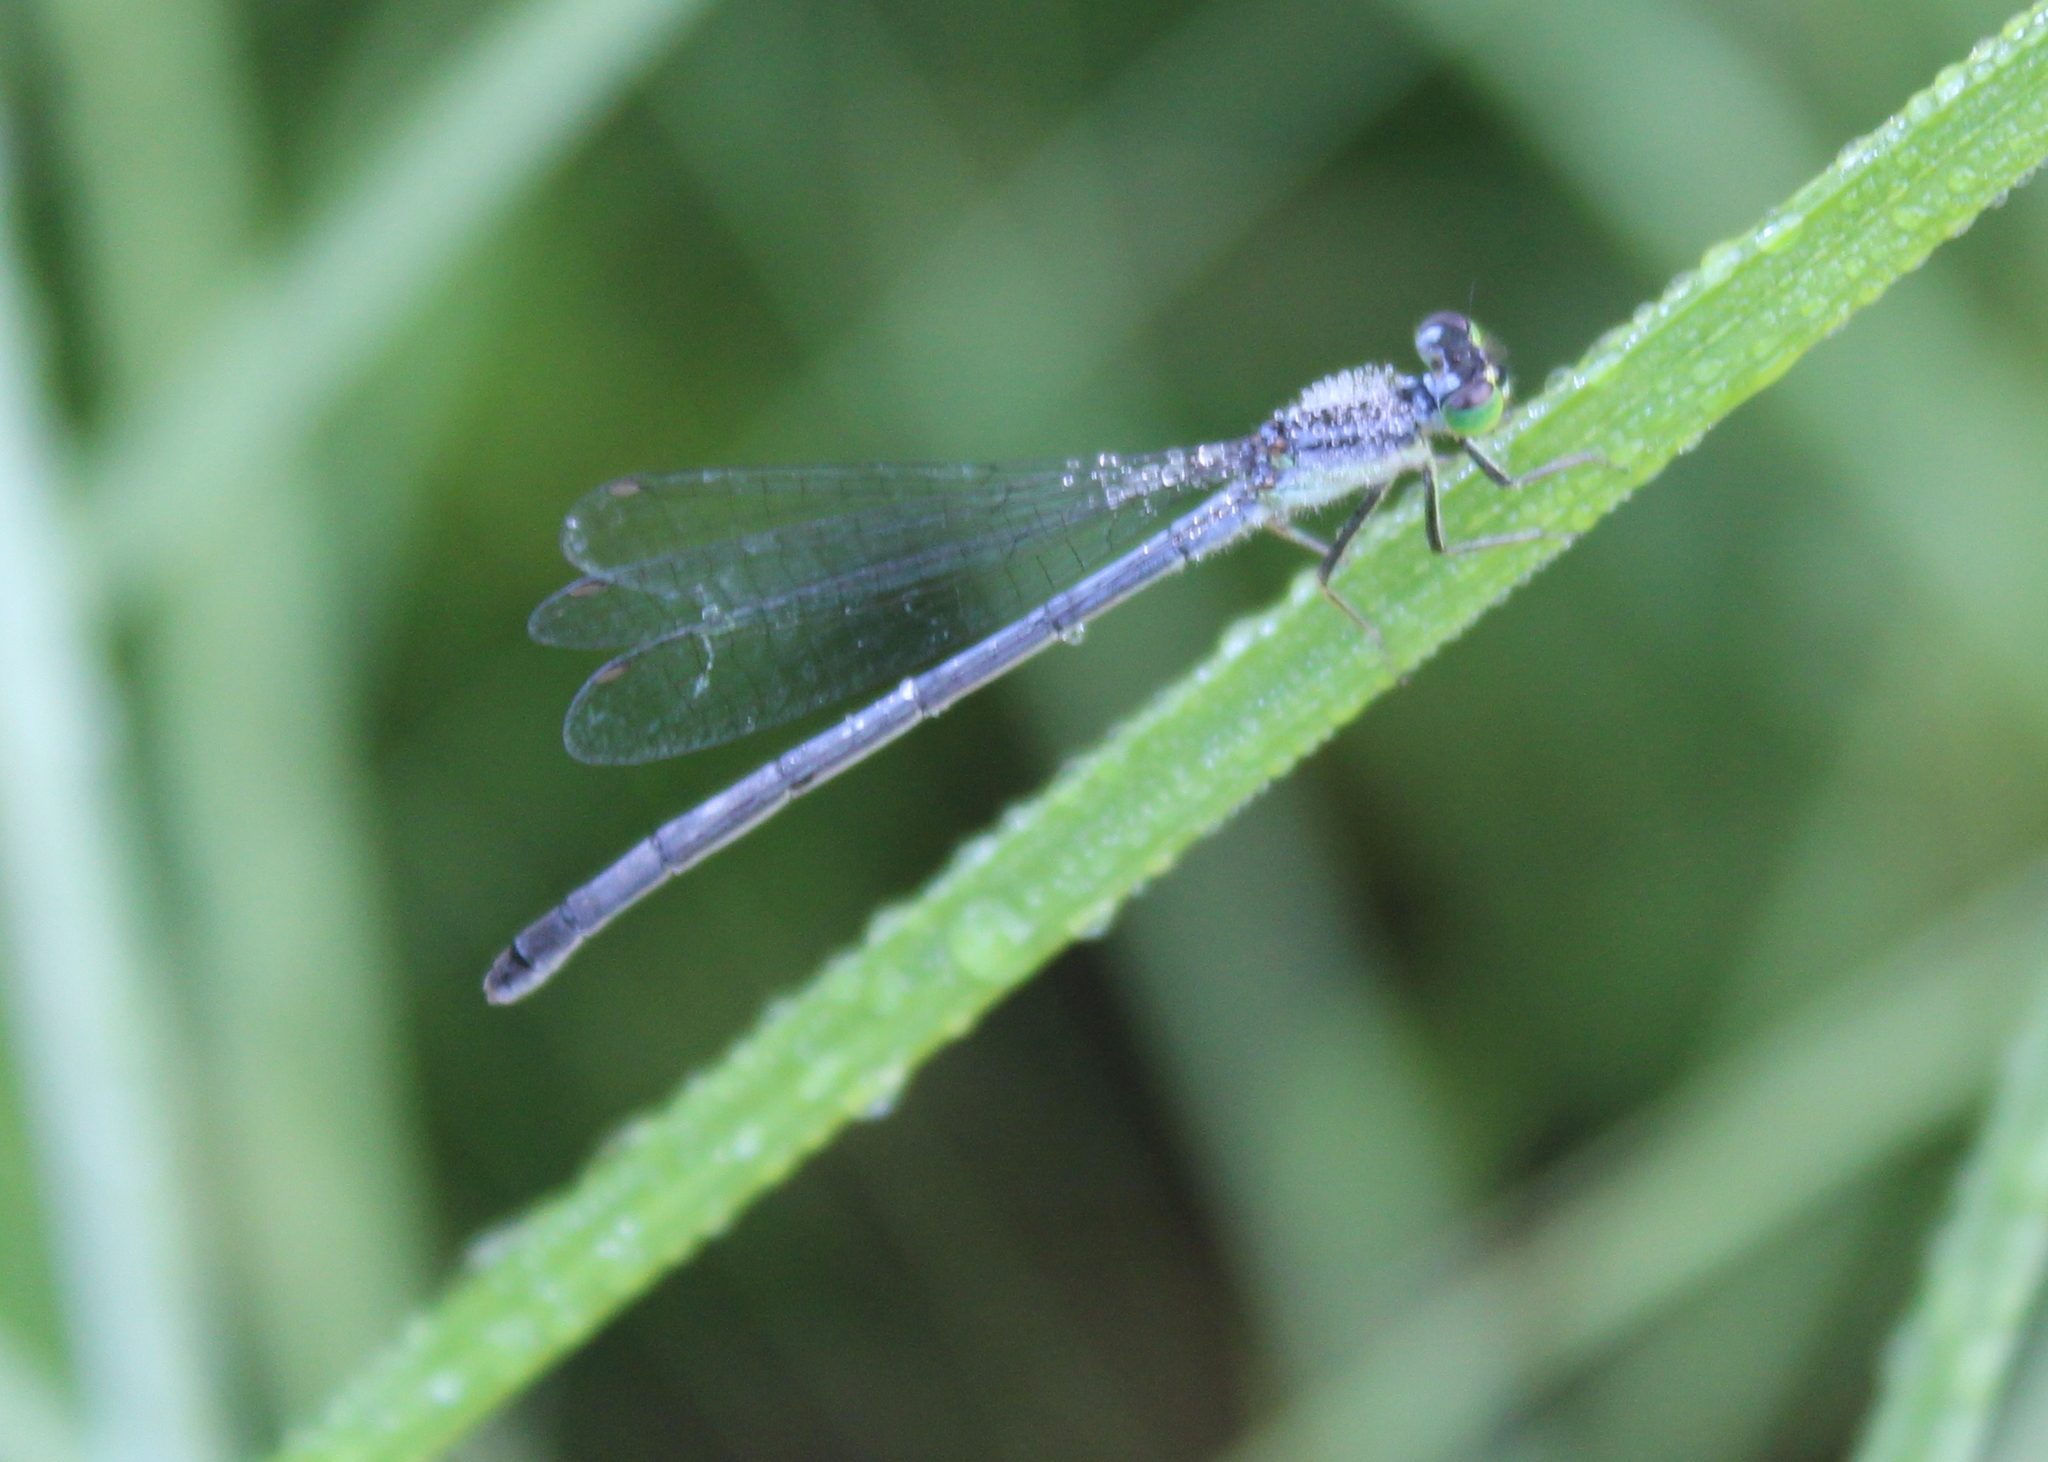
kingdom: Animalia
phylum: Arthropoda
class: Insecta
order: Odonata
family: Coenagrionidae
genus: Ischnura
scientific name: Ischnura verticalis
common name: Eastern forktail
